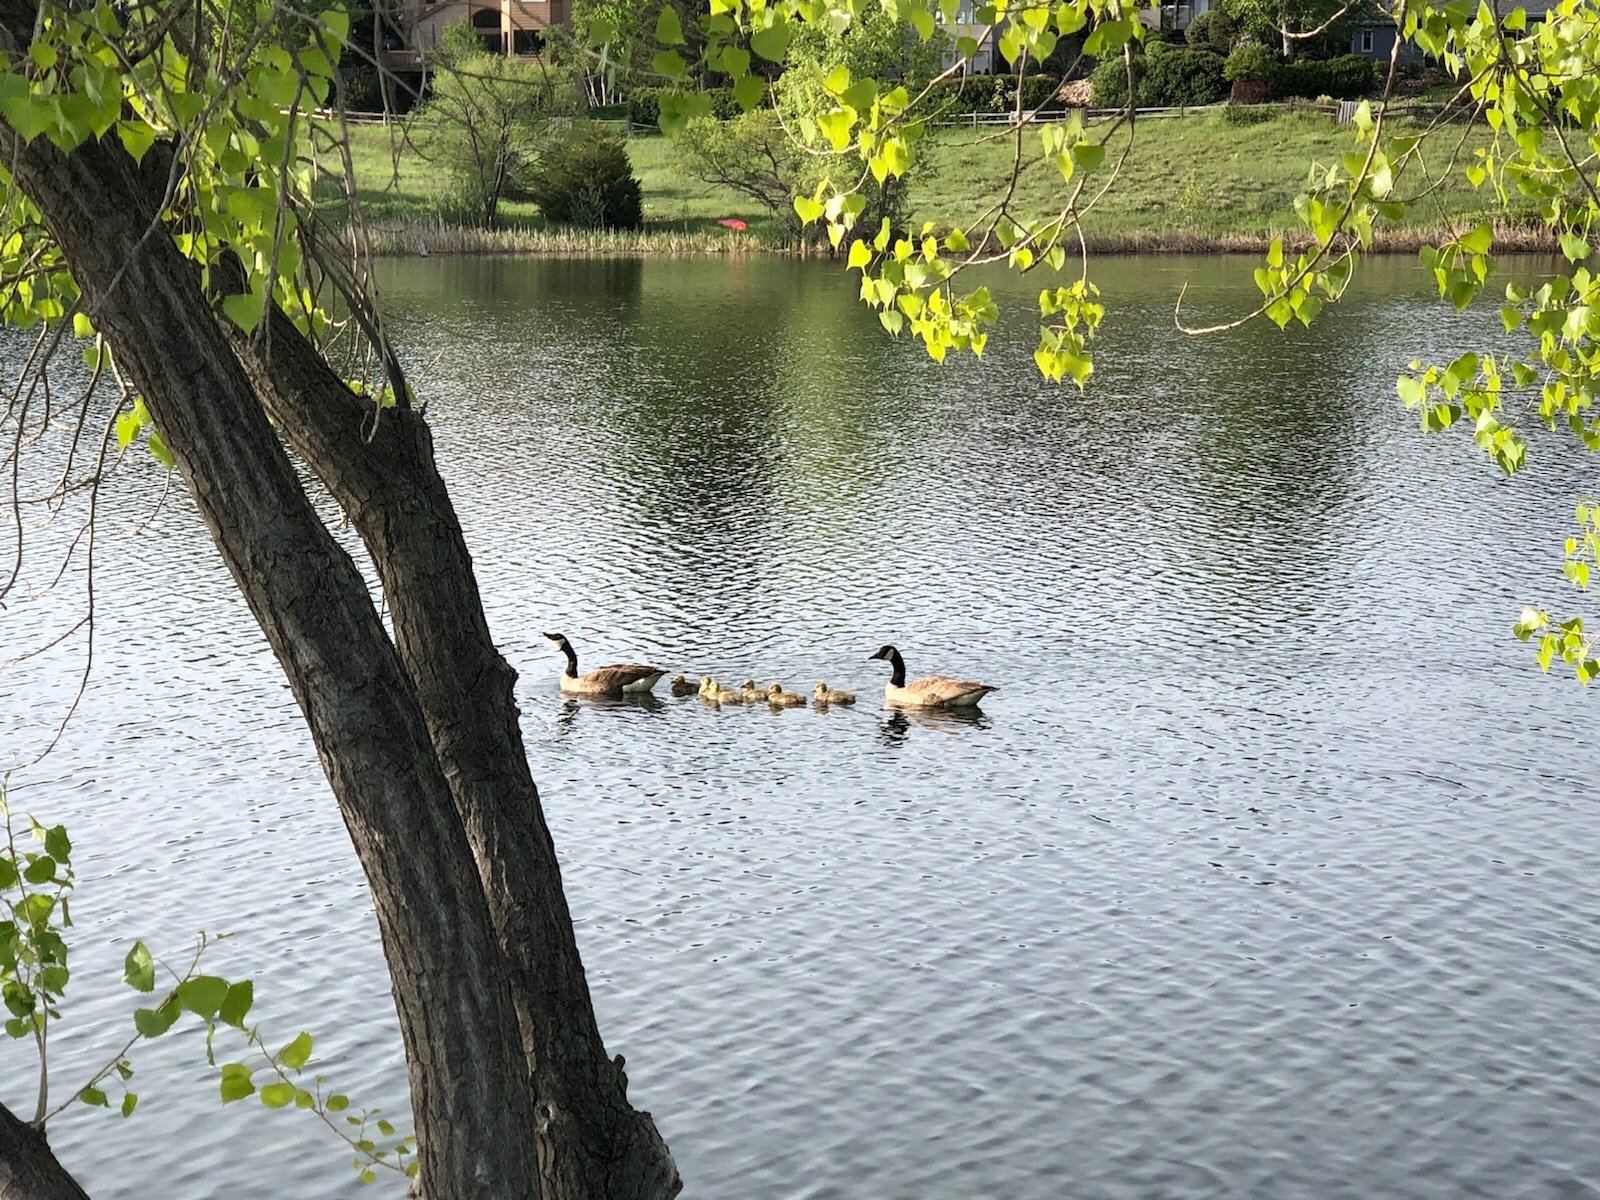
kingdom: Animalia
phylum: Chordata
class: Aves
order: Anseriformes
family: Anatidae
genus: Branta
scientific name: Branta canadensis
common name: Canada goose
